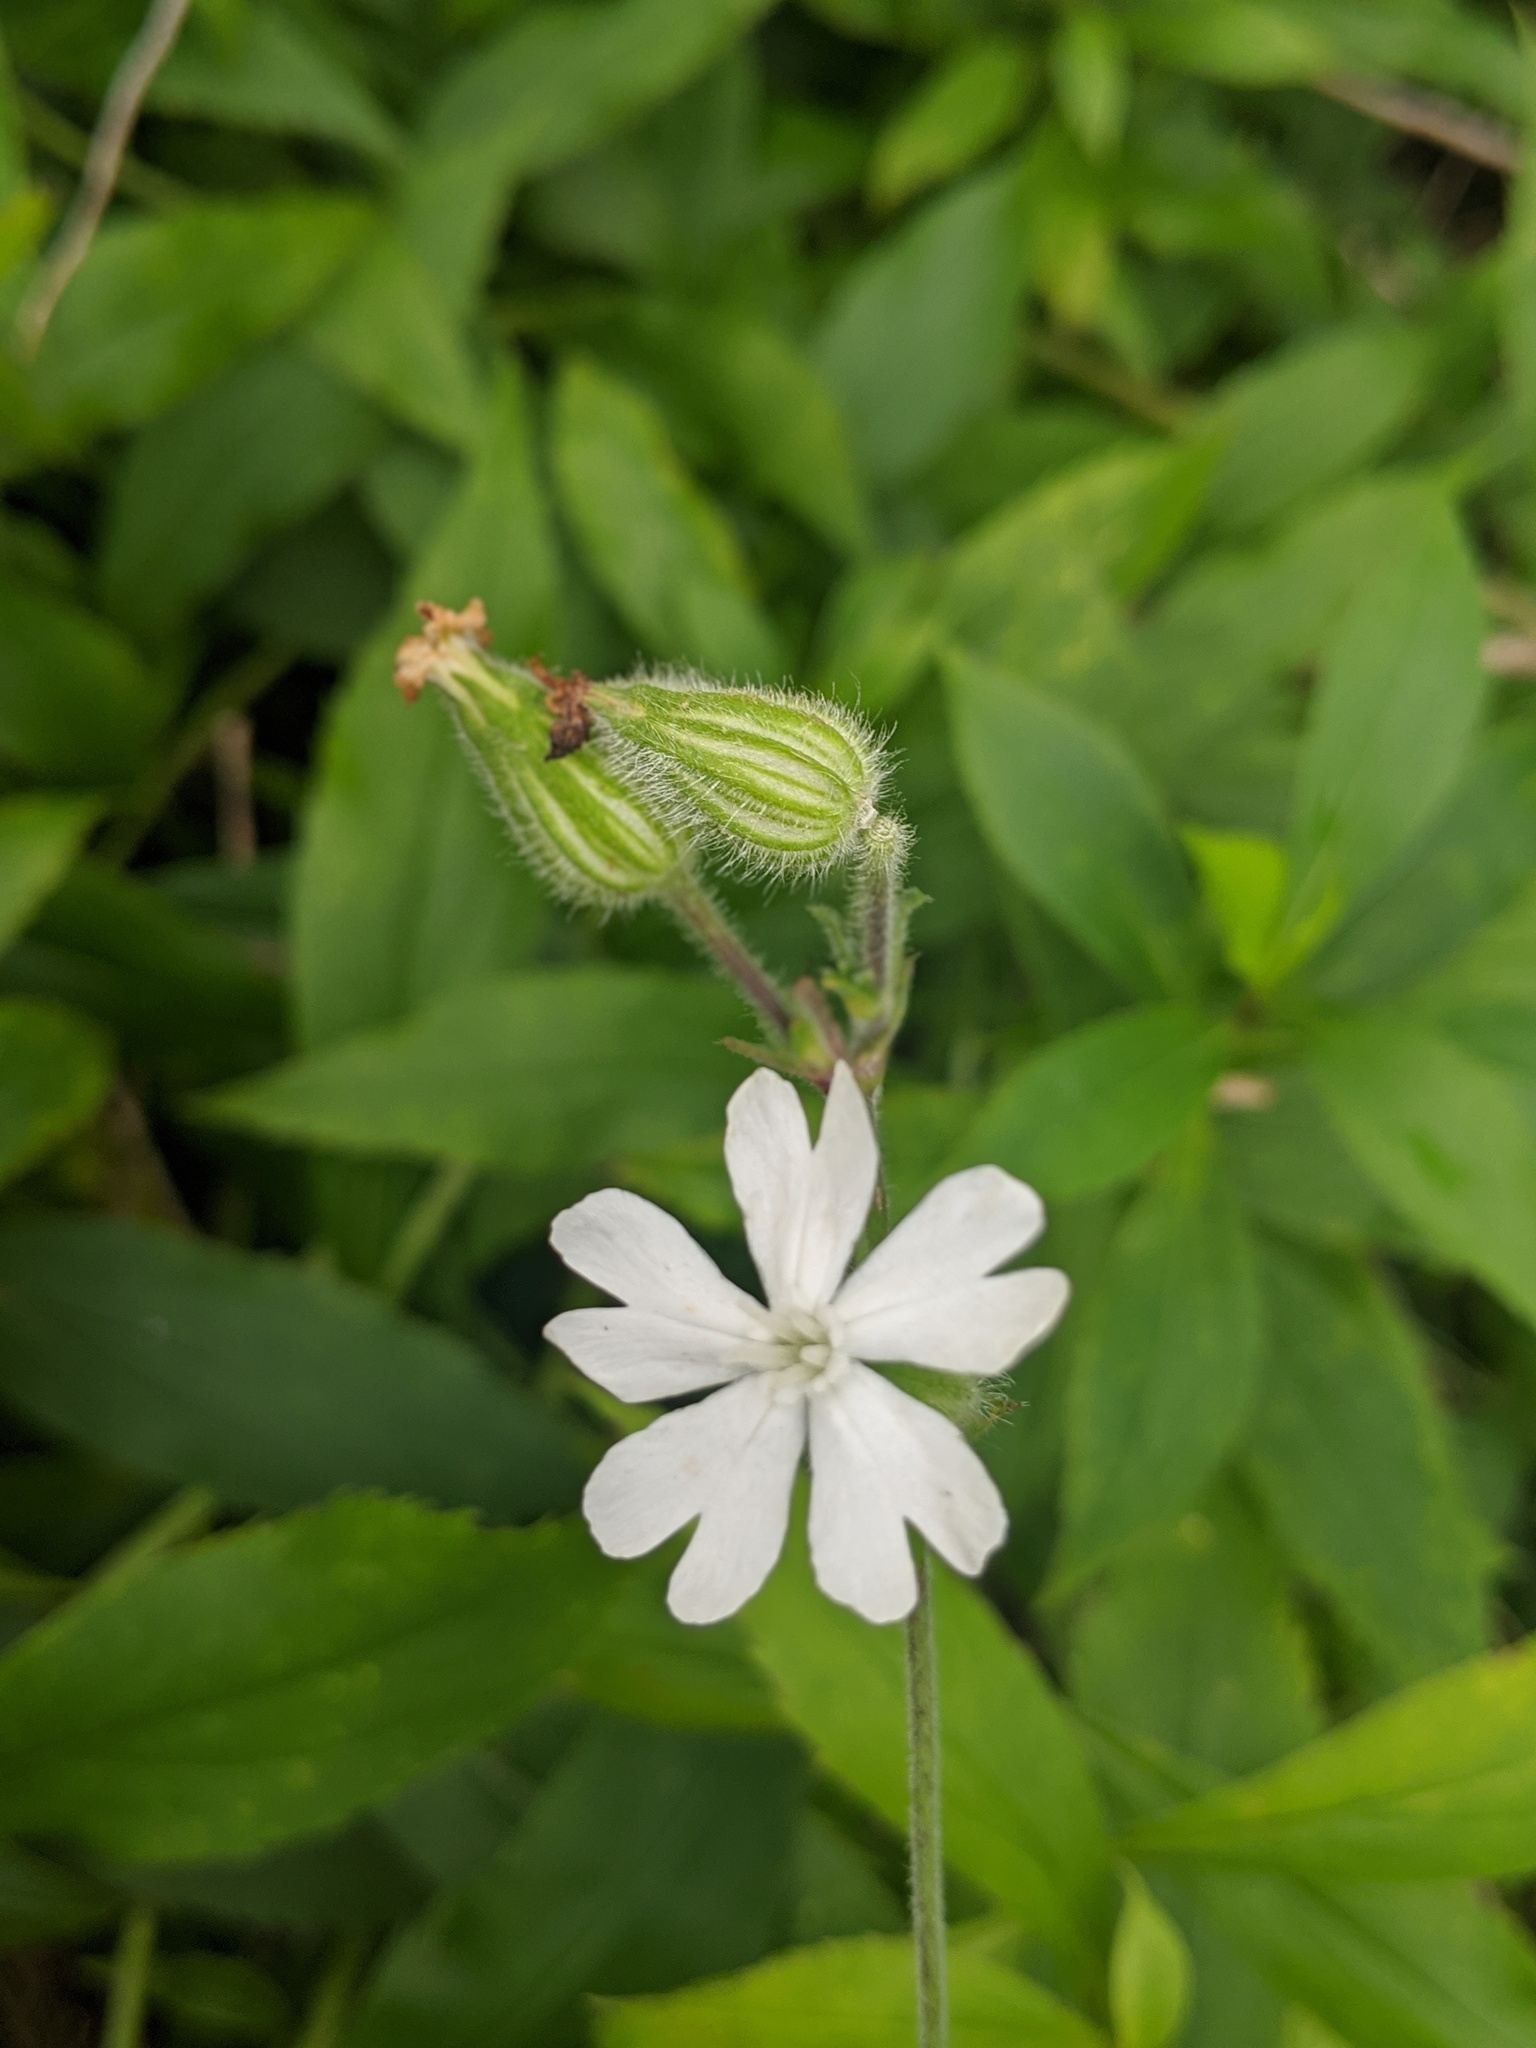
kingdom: Plantae
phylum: Tracheophyta
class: Magnoliopsida
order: Caryophyllales
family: Caryophyllaceae
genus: Silene
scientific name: Silene latifolia
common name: White campion
